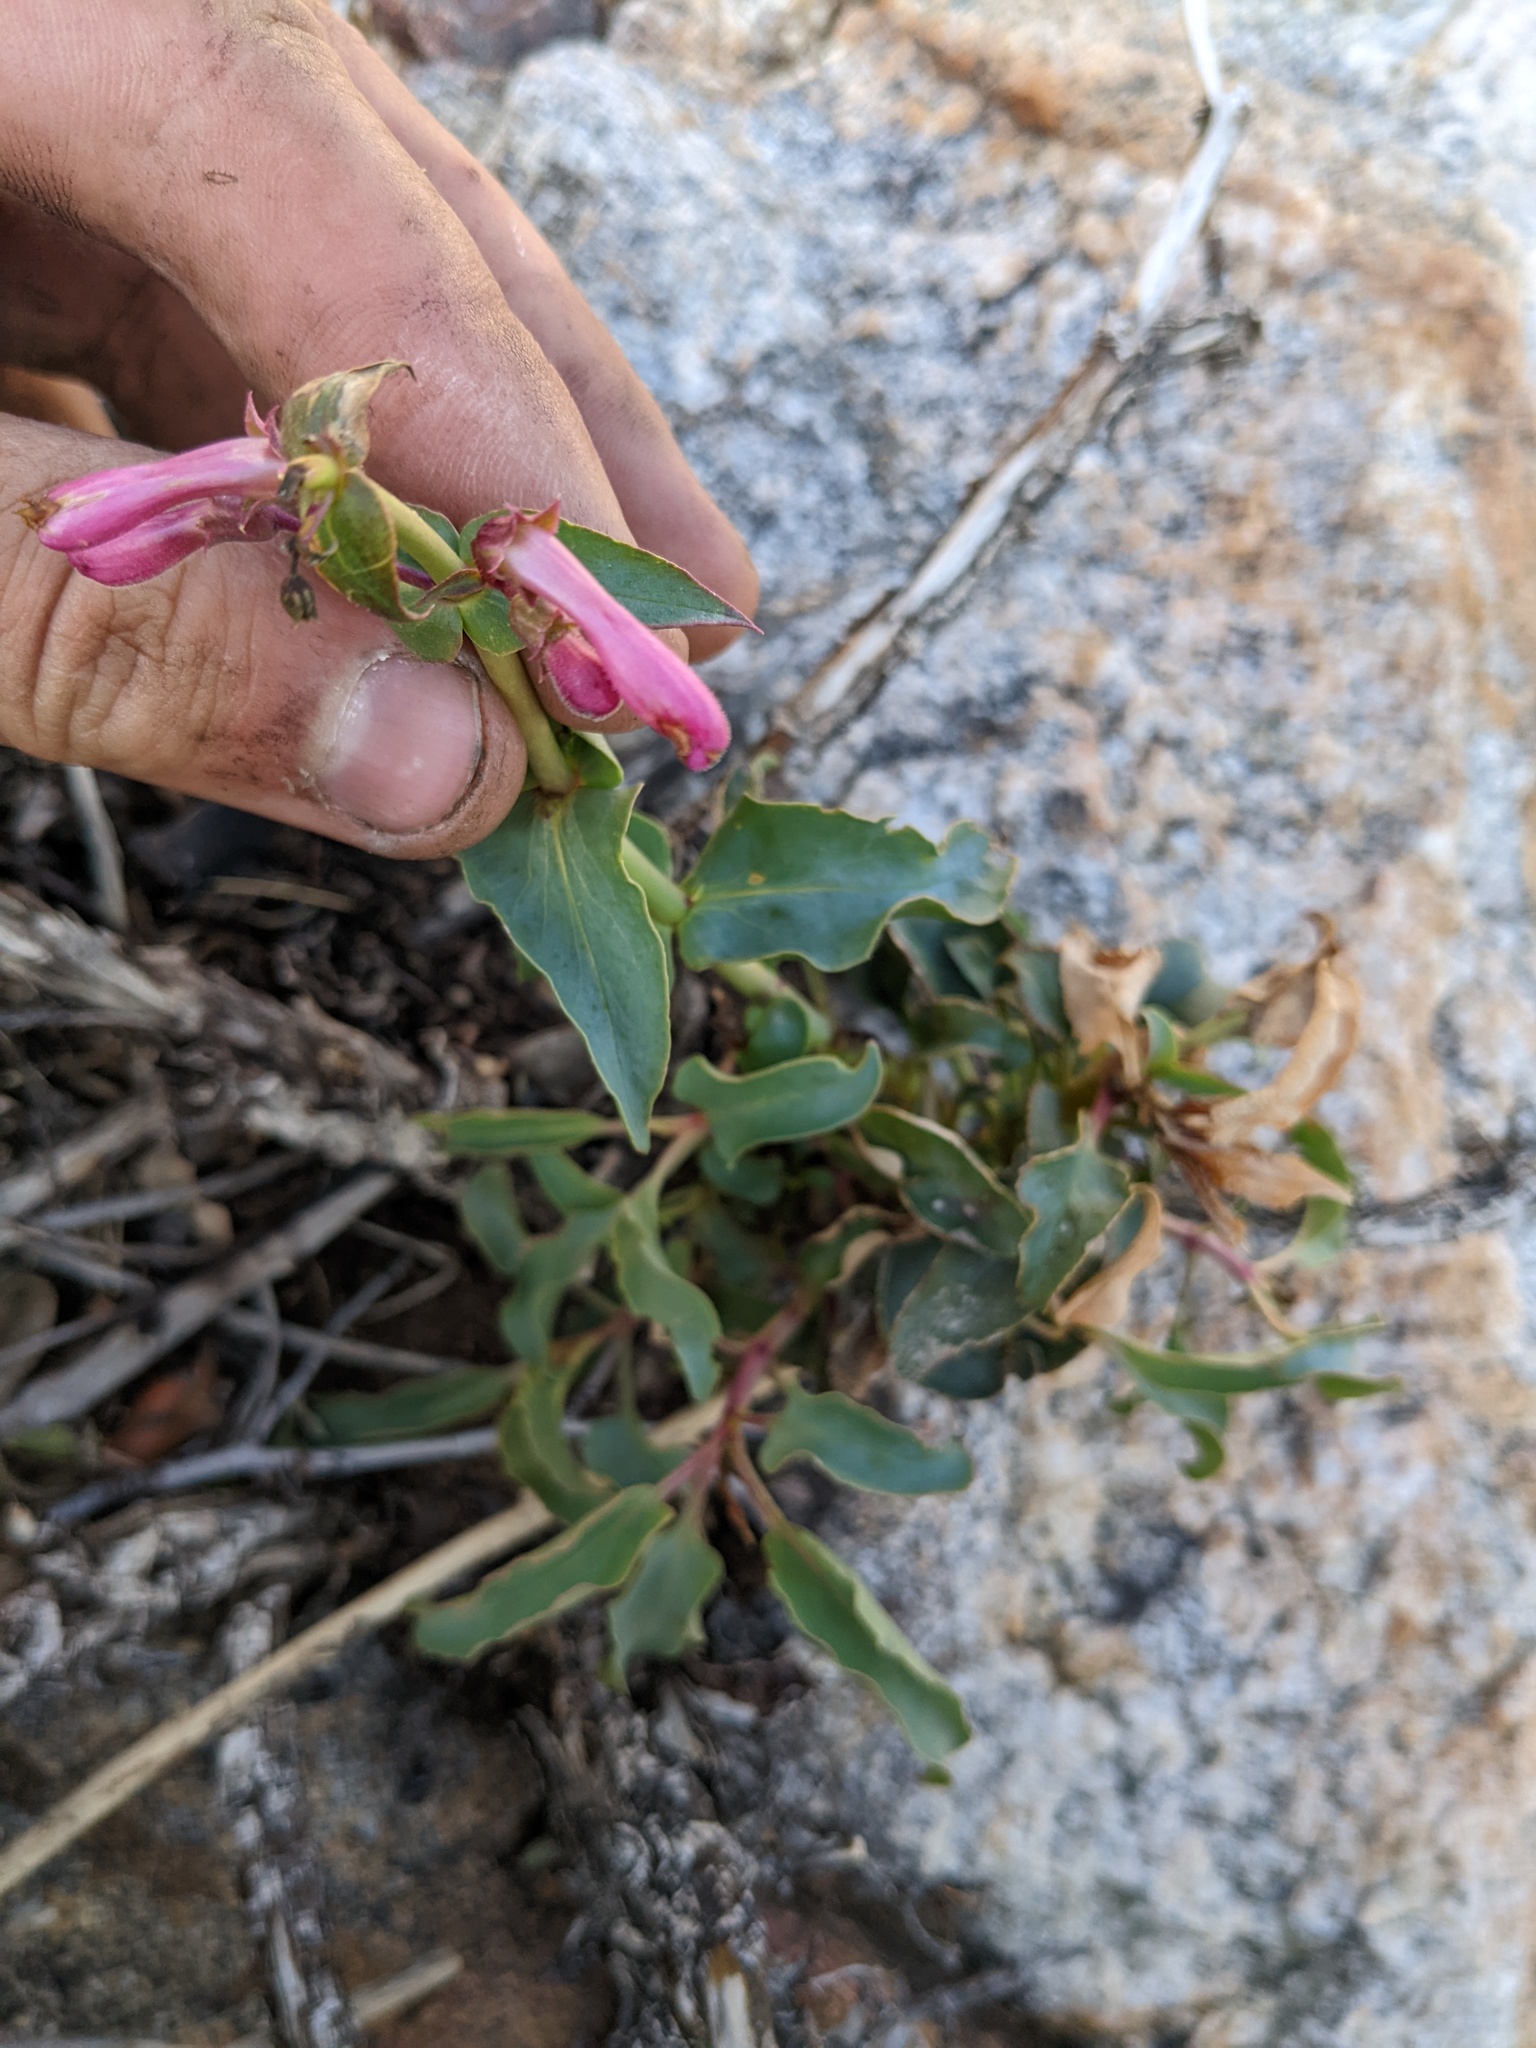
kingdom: Plantae
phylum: Tracheophyta
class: Magnoliopsida
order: Lamiales
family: Plantaginaceae
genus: Penstemon
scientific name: Penstemon clevelandii
